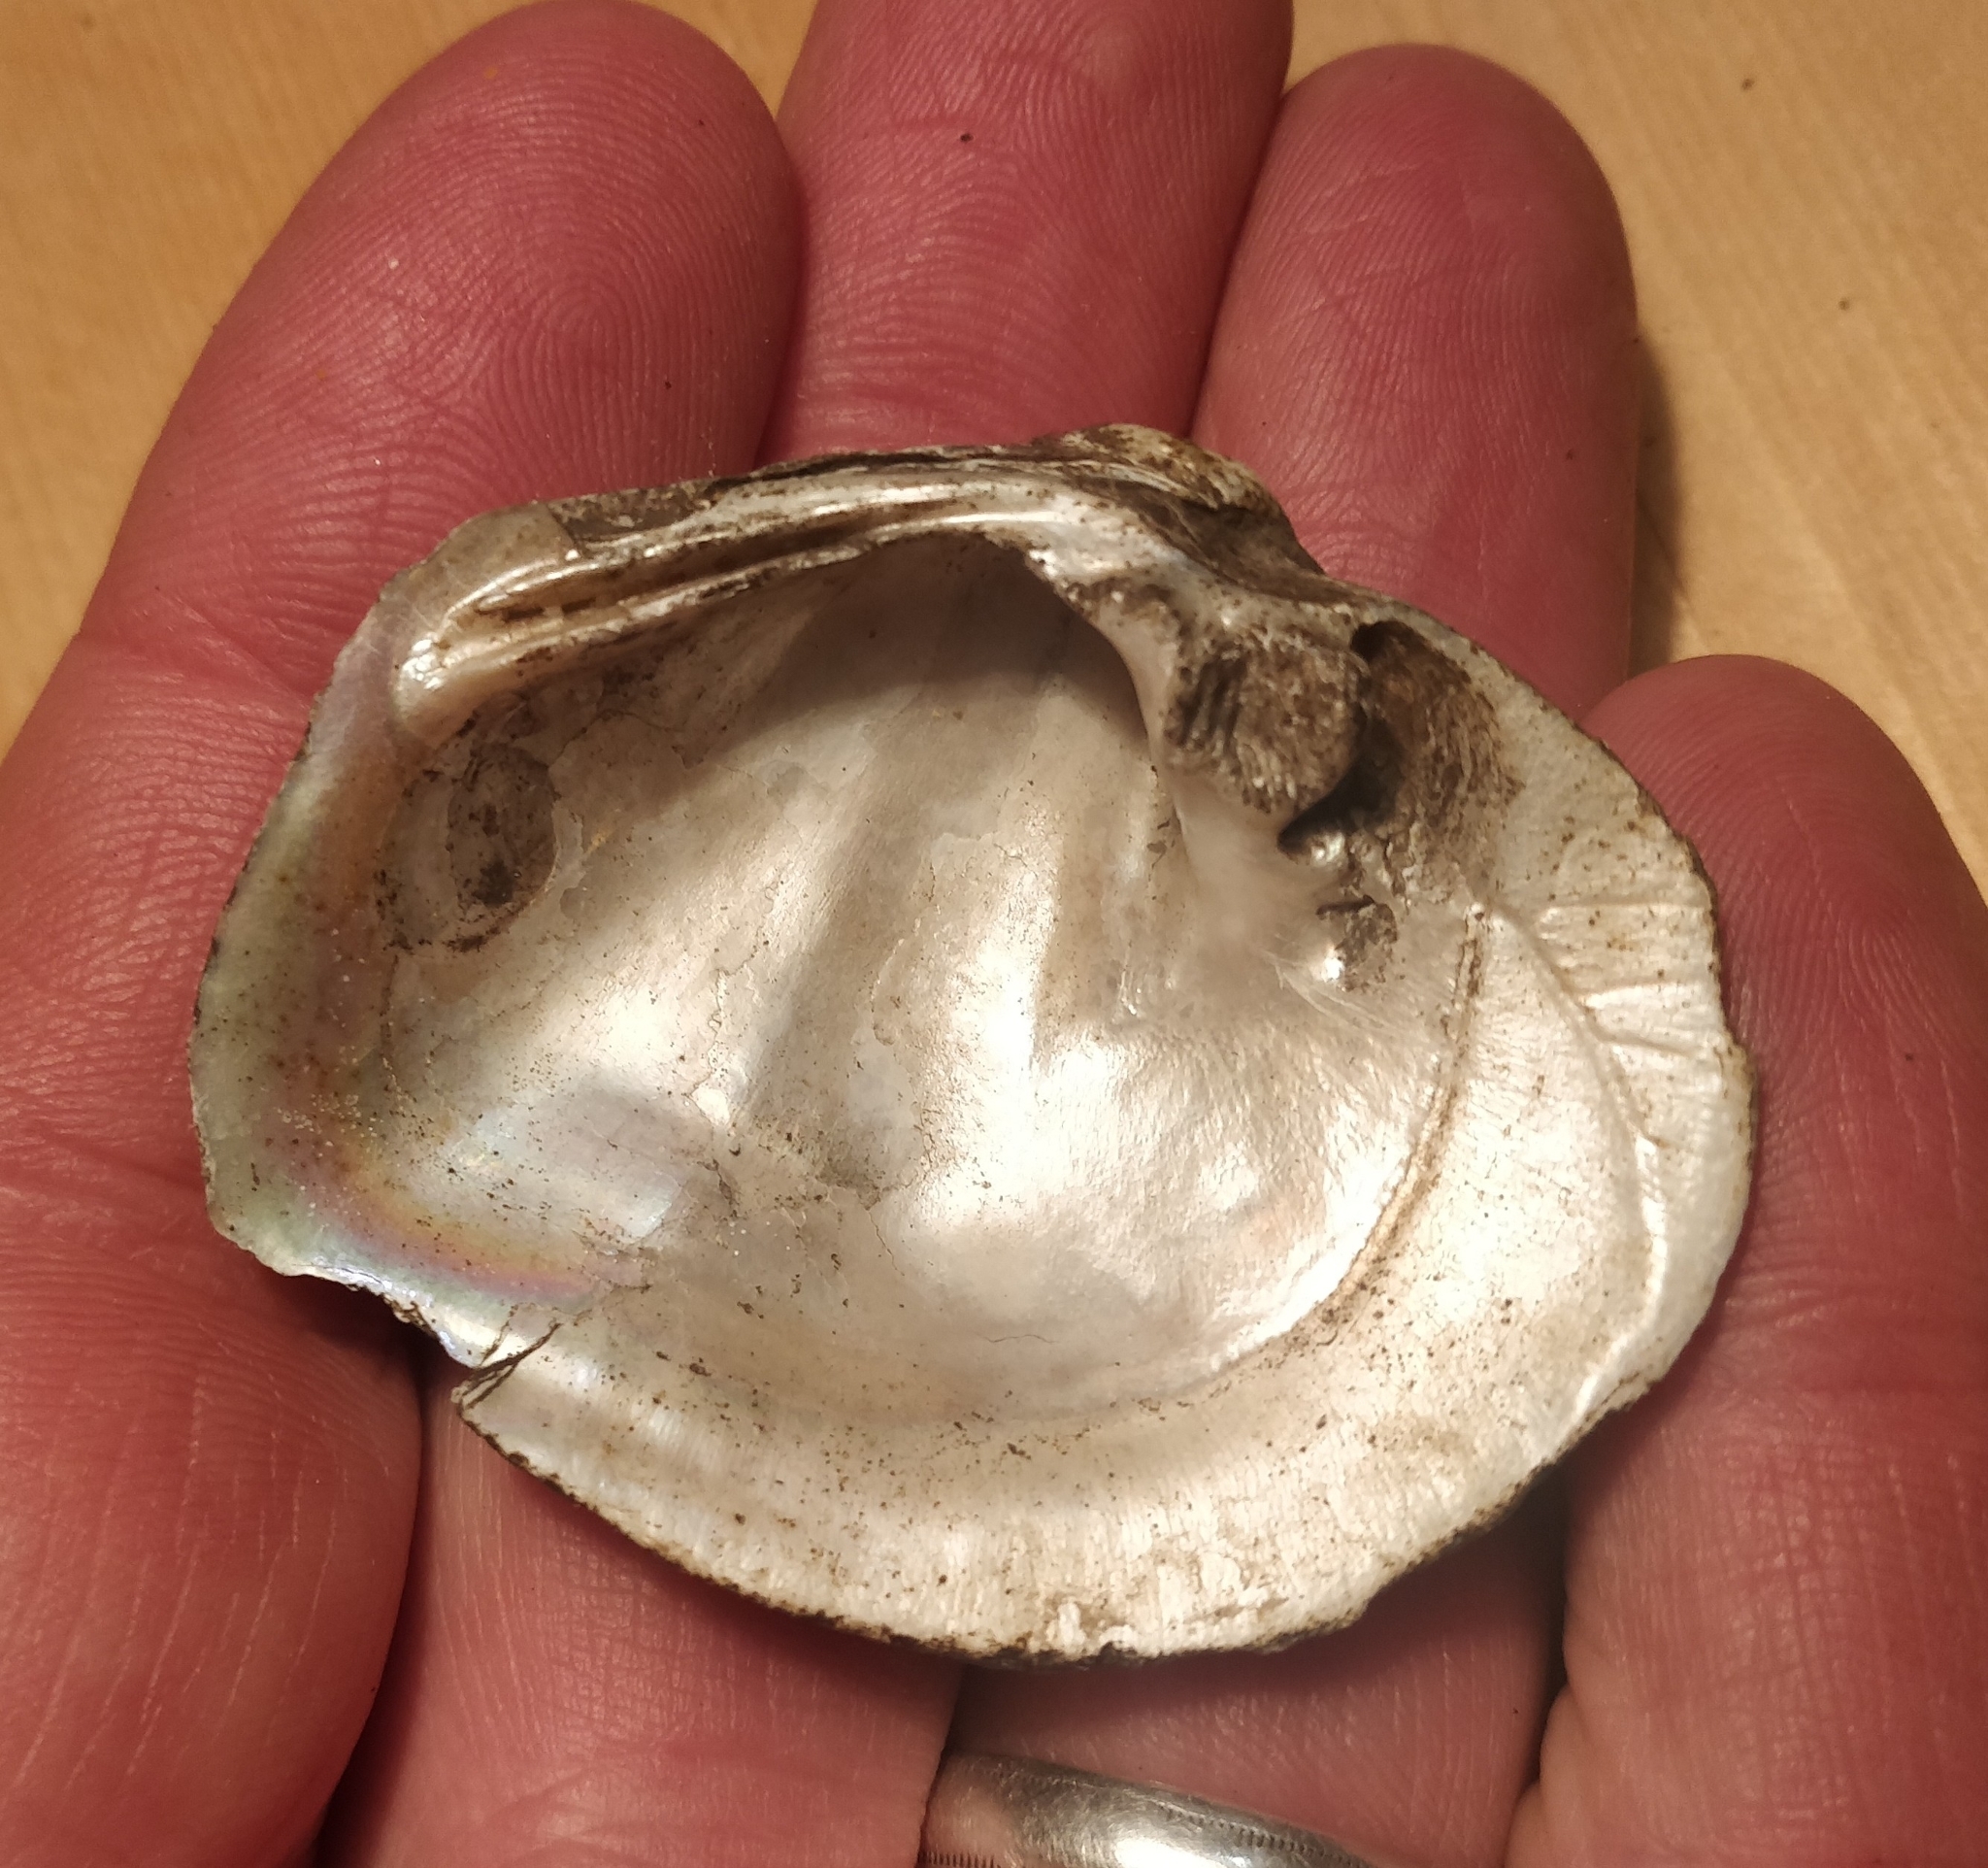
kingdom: Animalia
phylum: Mollusca
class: Bivalvia
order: Unionida
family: Unionidae
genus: Quadrula
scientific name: Quadrula quadrula
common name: Mapleleaf
